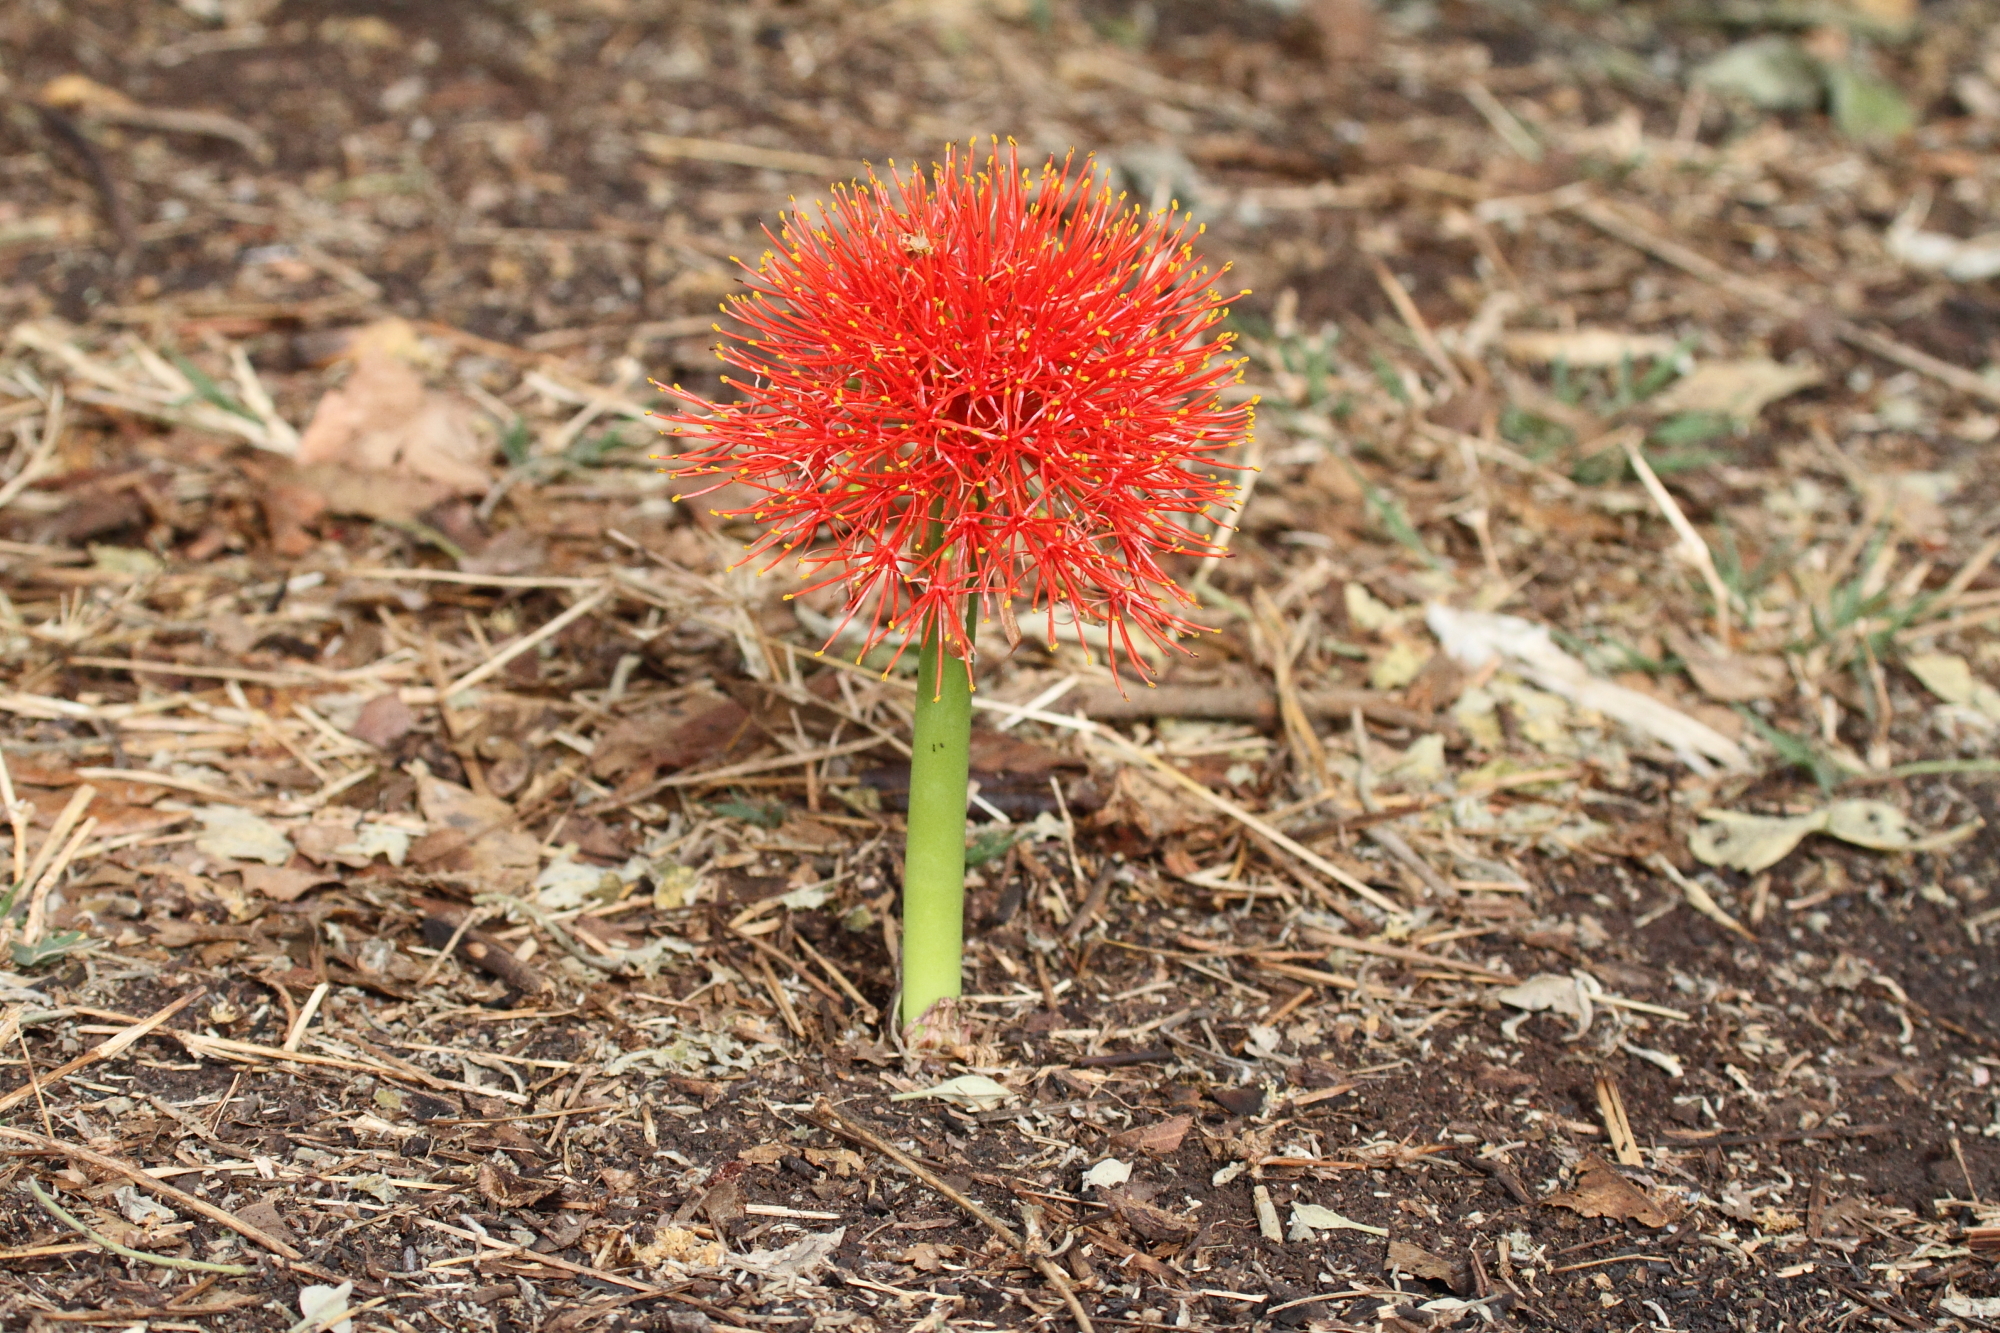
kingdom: Plantae
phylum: Tracheophyta
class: Liliopsida
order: Asparagales
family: Amaryllidaceae
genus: Scadoxus
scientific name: Scadoxus multiflorus
